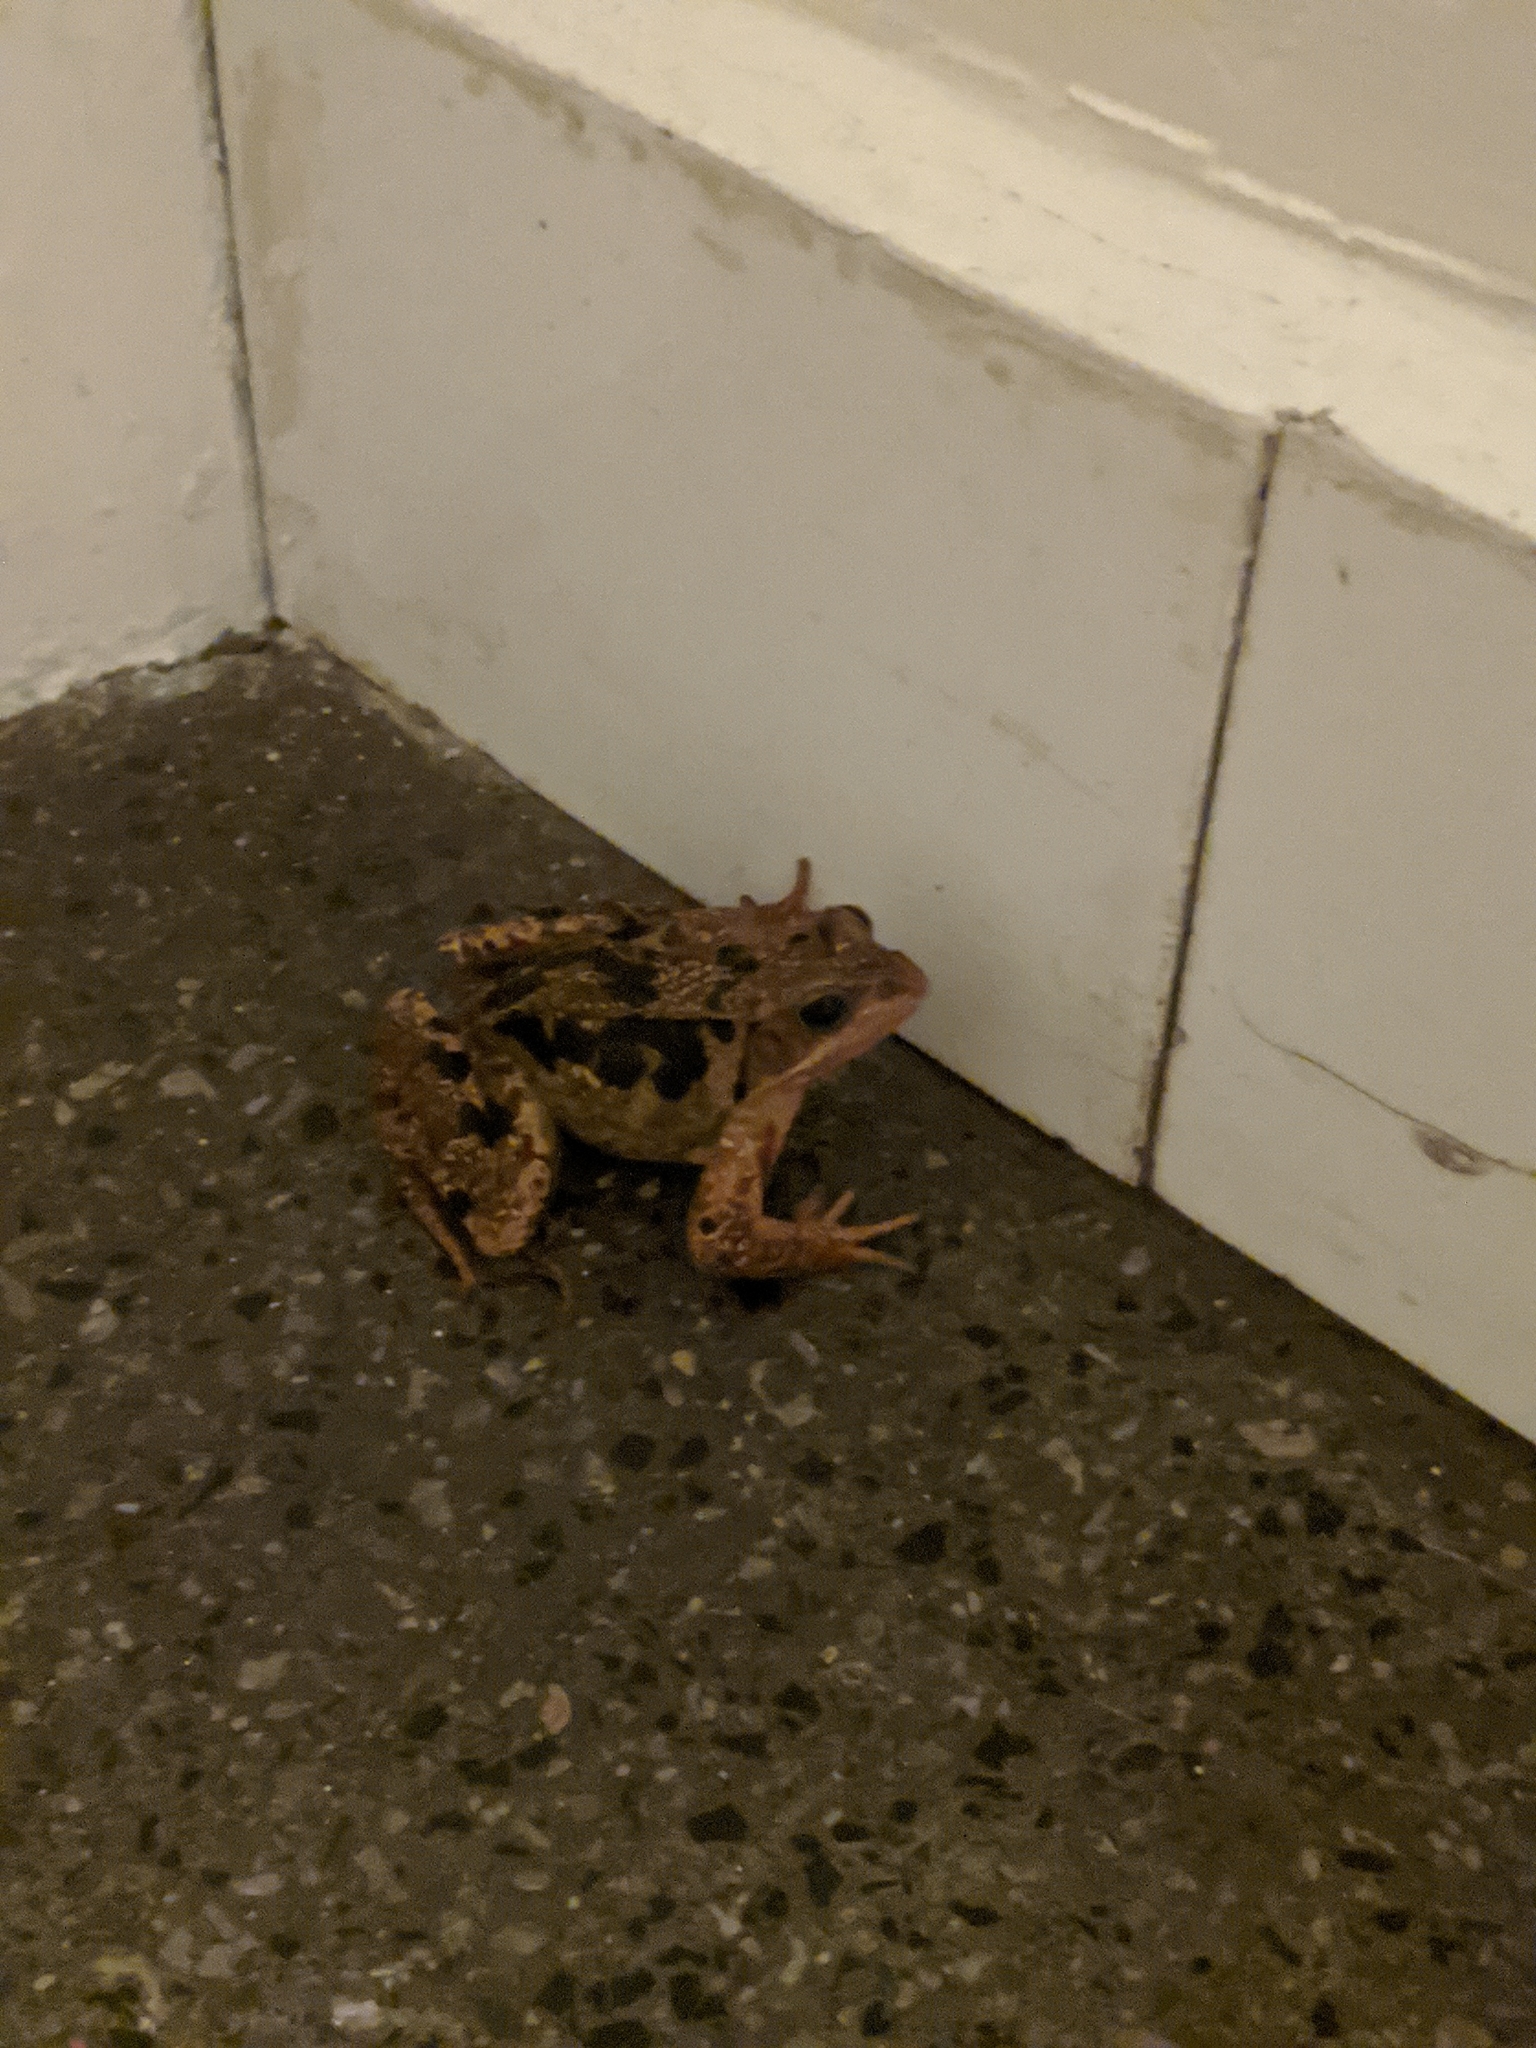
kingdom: Animalia
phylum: Chordata
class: Amphibia
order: Anura
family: Ranidae
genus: Rana
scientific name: Rana temporaria
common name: Common frog
